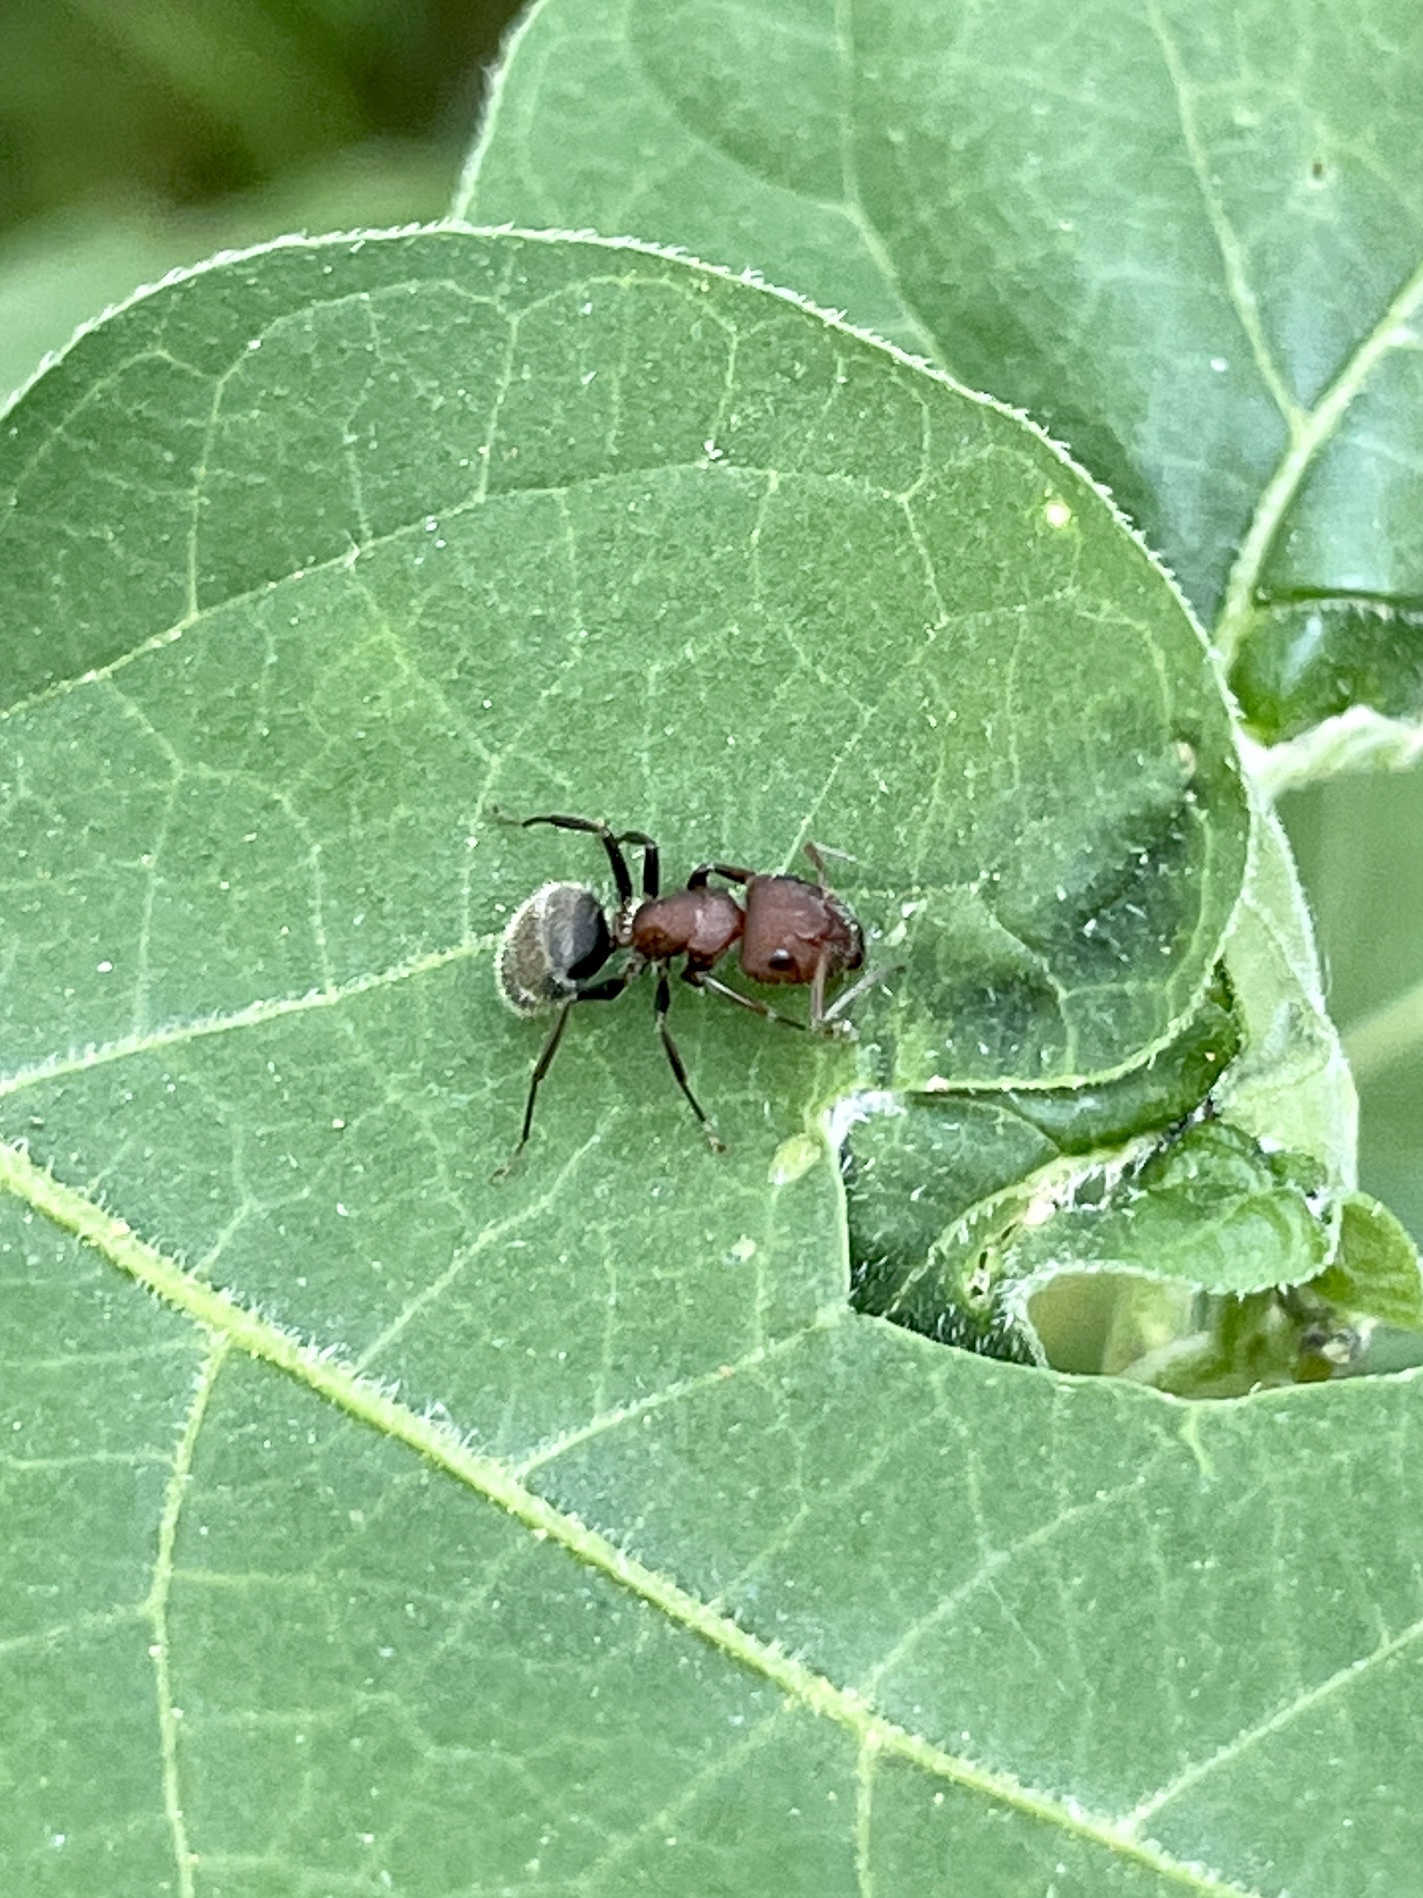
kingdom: Animalia
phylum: Arthropoda
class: Insecta
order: Hymenoptera
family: Formicidae
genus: Camponotus
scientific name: Camponotus planatus
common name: Compact carpenter ant
